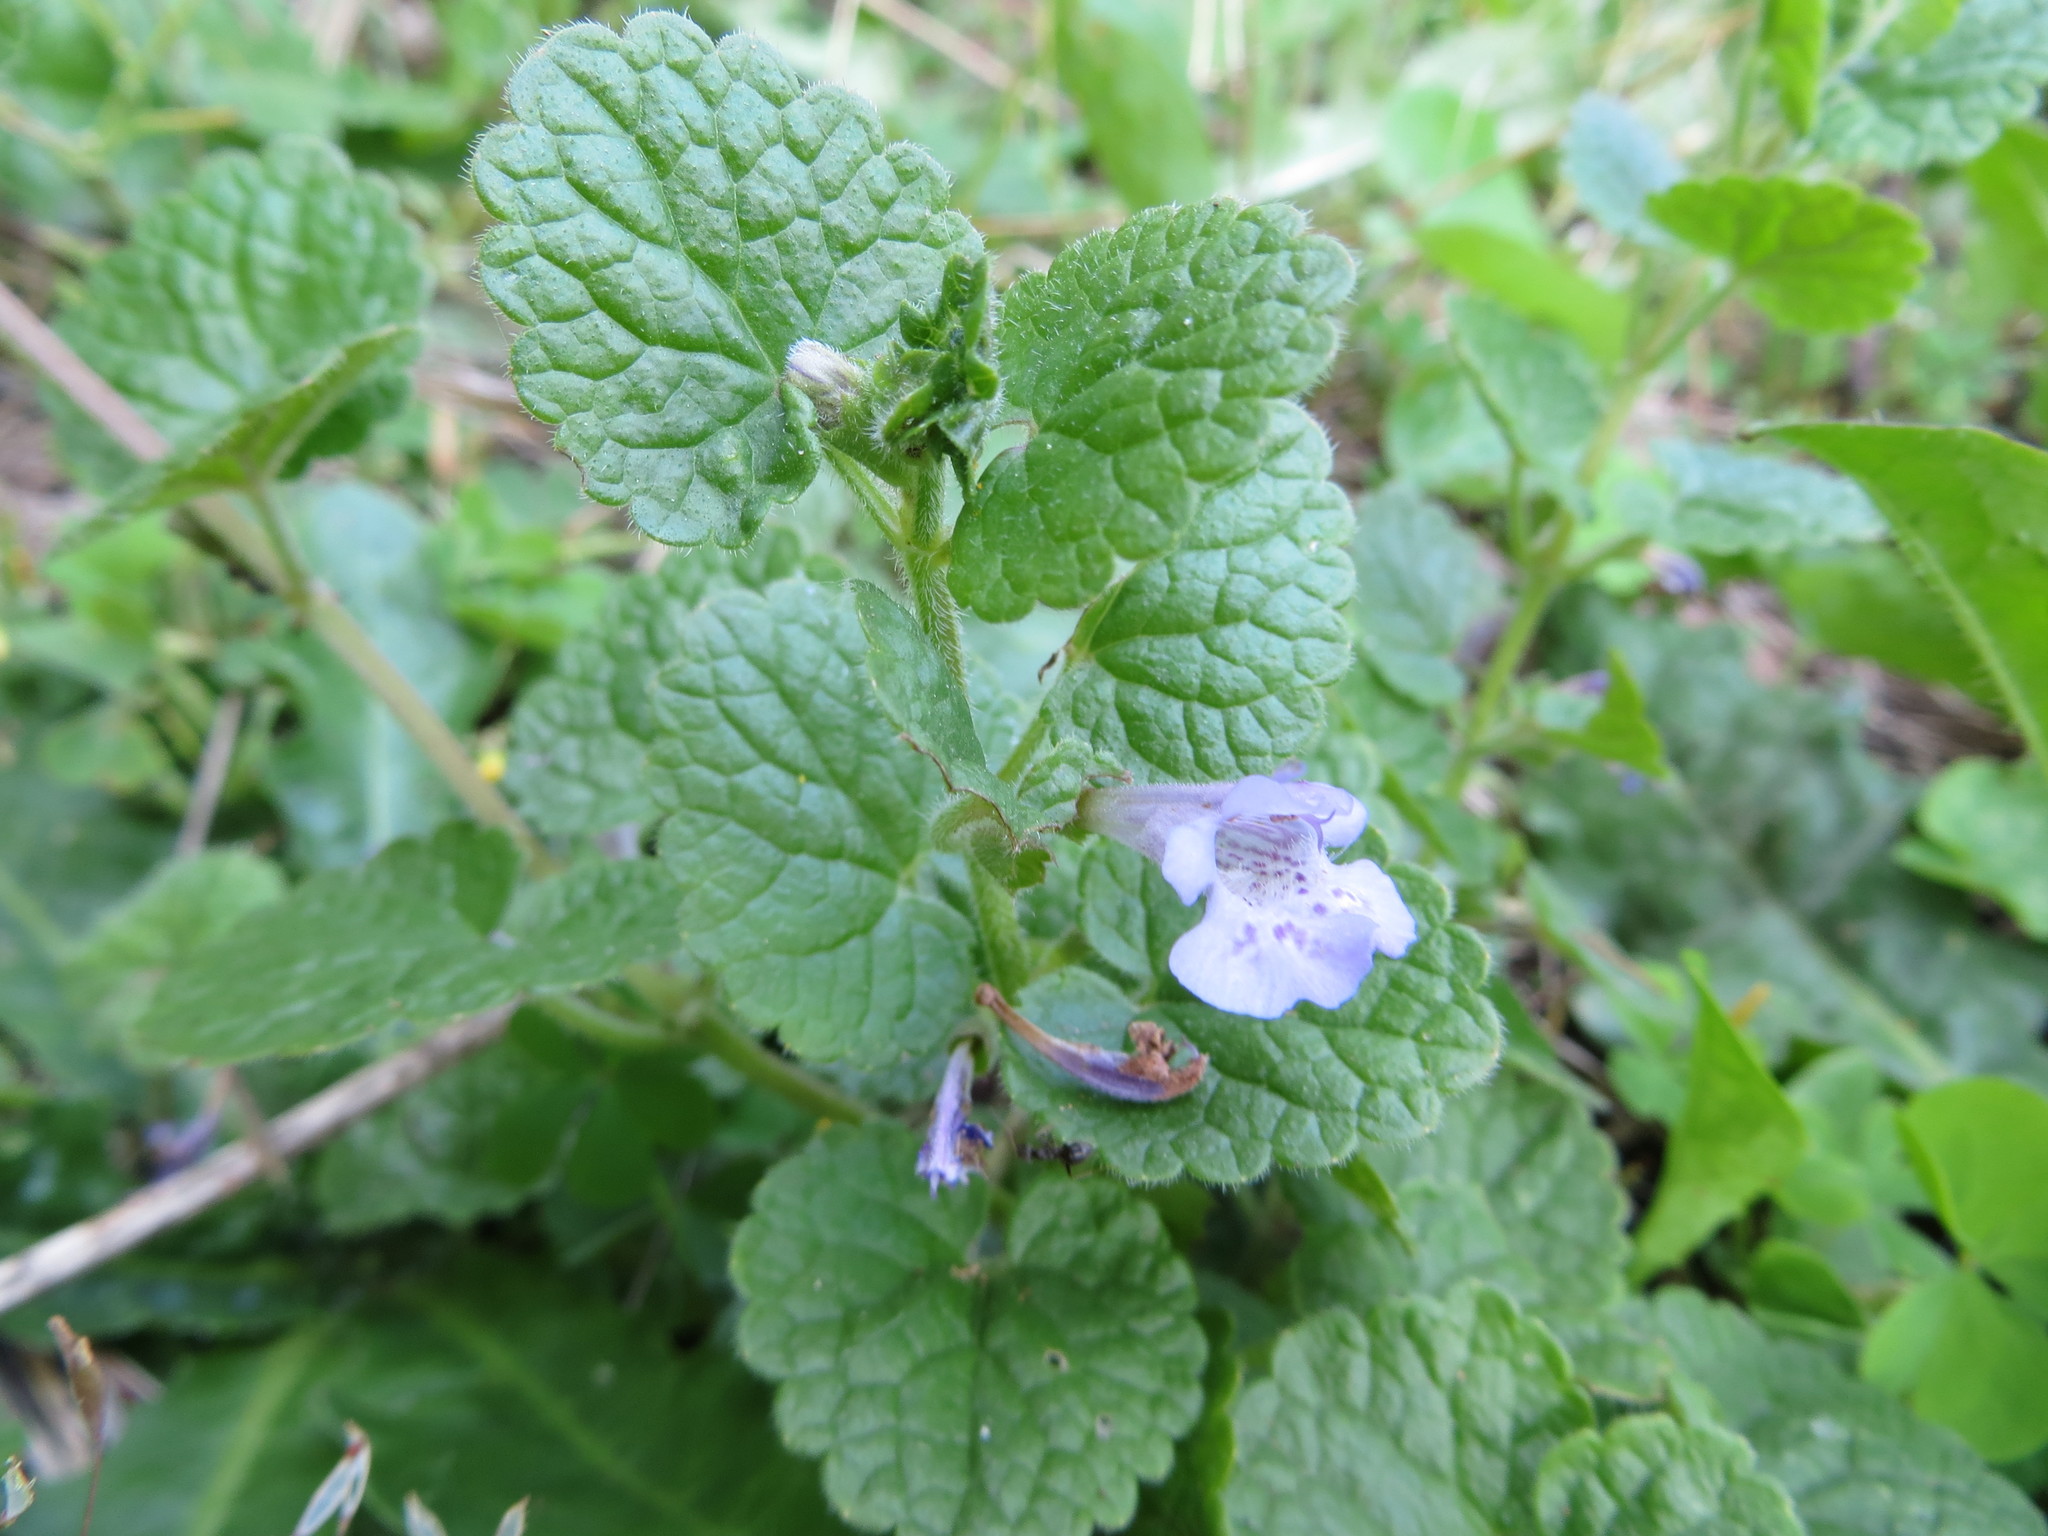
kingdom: Plantae
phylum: Tracheophyta
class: Magnoliopsida
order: Lamiales
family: Lamiaceae
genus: Glechoma
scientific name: Glechoma hederacea
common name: Ground ivy
